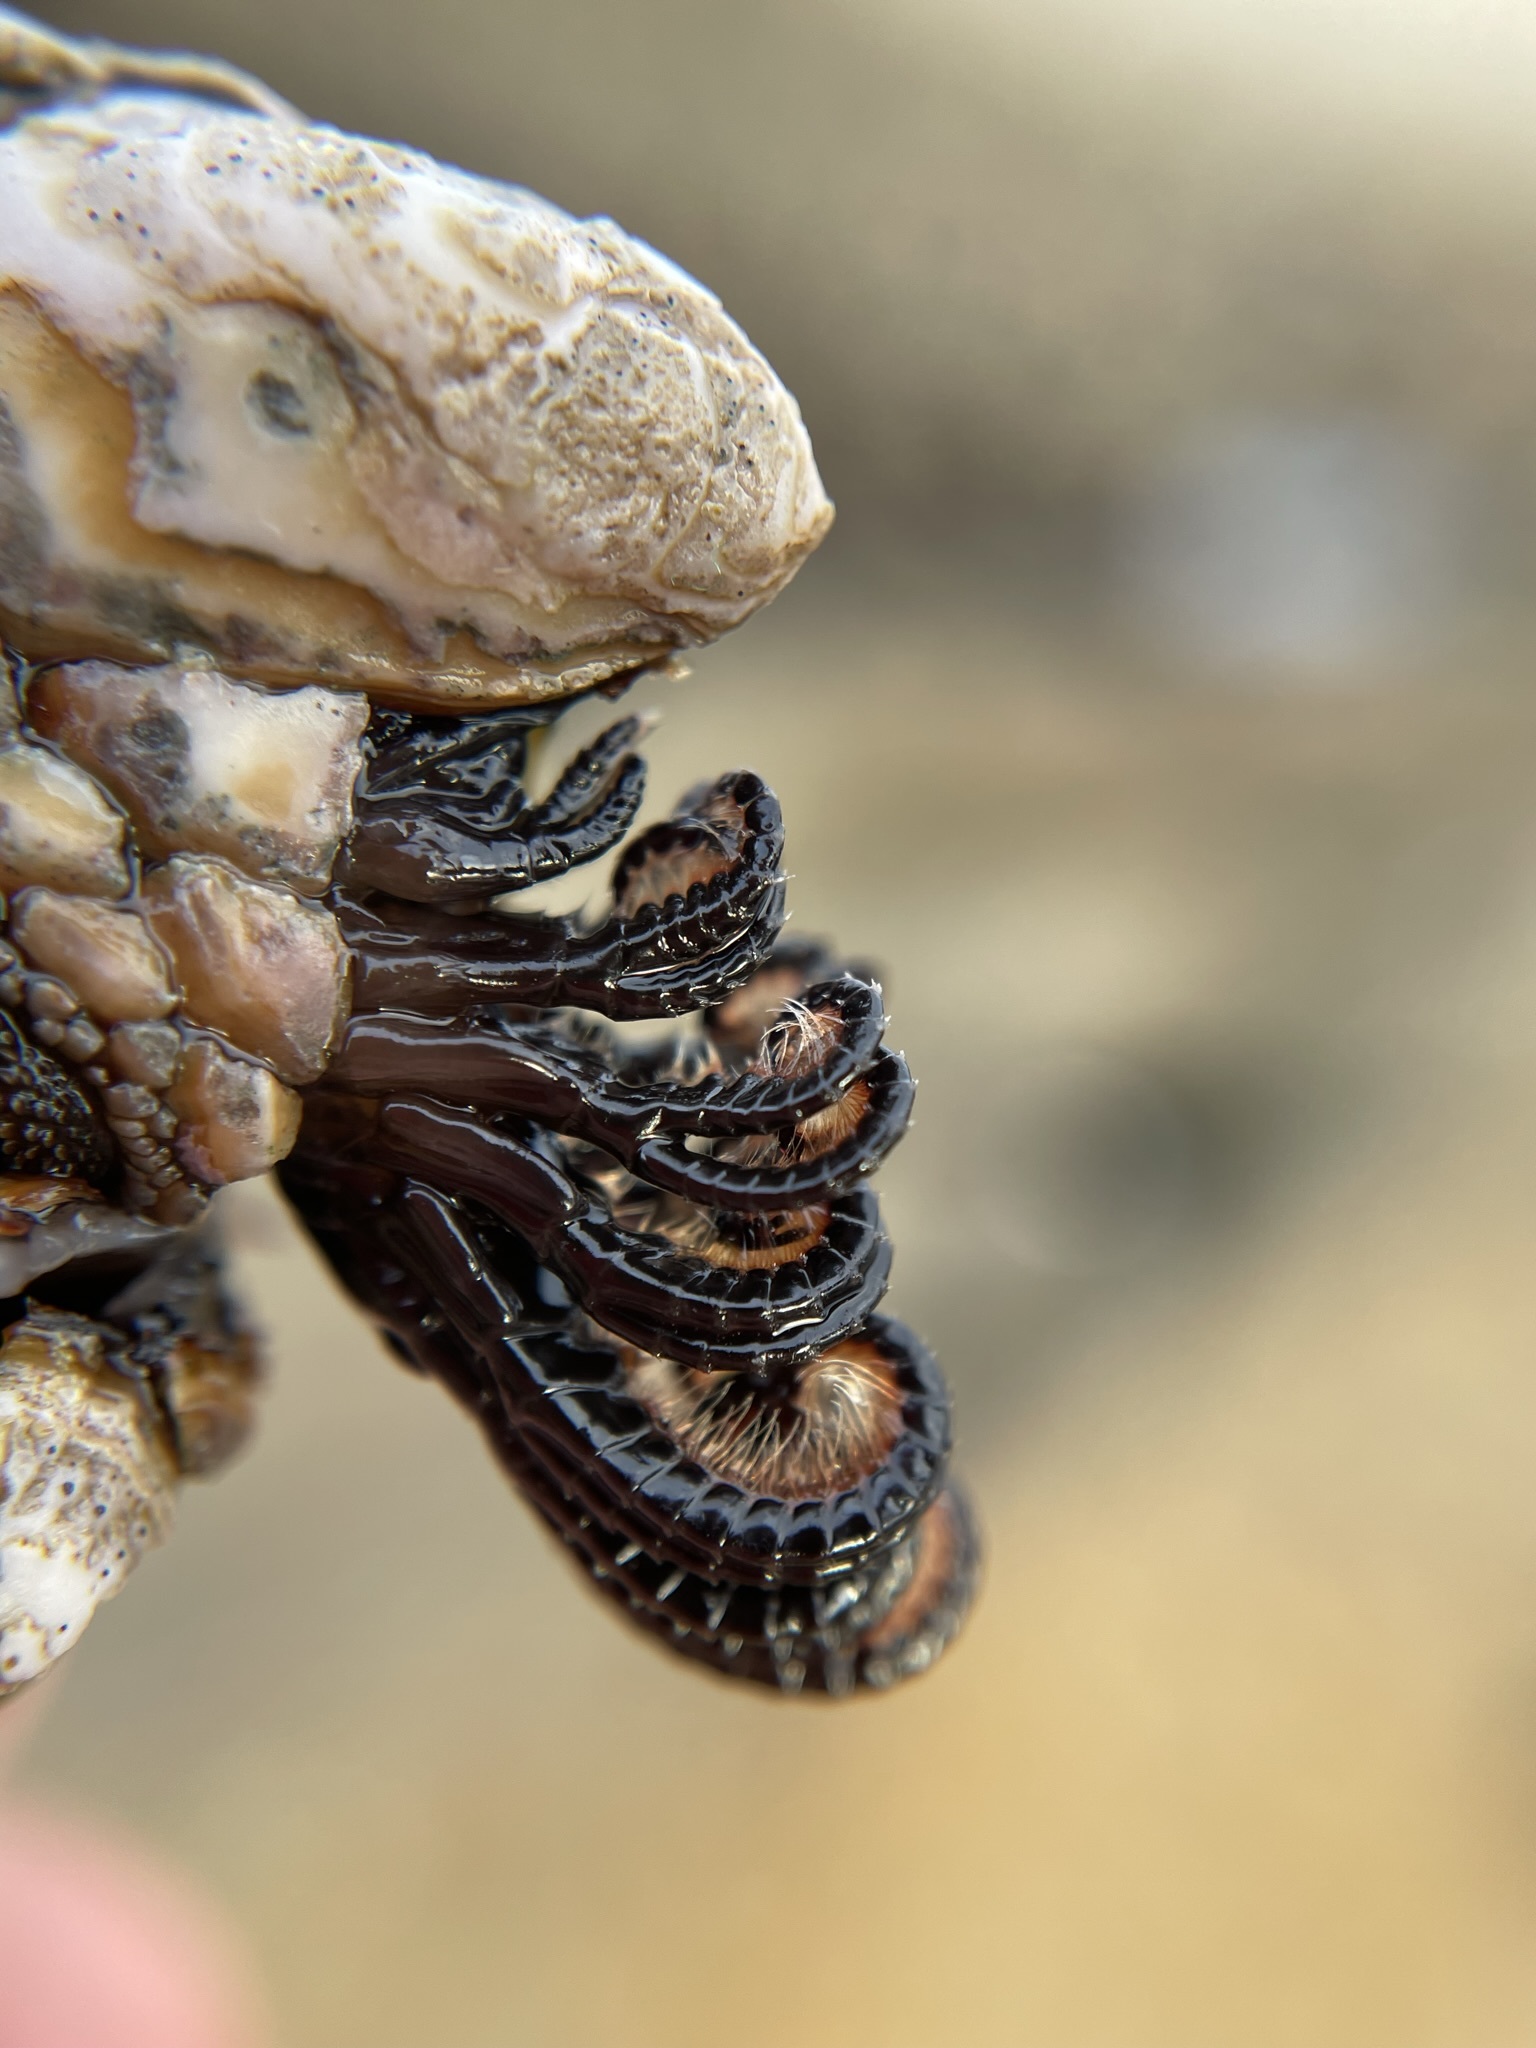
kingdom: Animalia
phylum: Arthropoda
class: Maxillopoda
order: Pedunculata
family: Pollicipedidae
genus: Pollicipes
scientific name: Pollicipes polymerus
